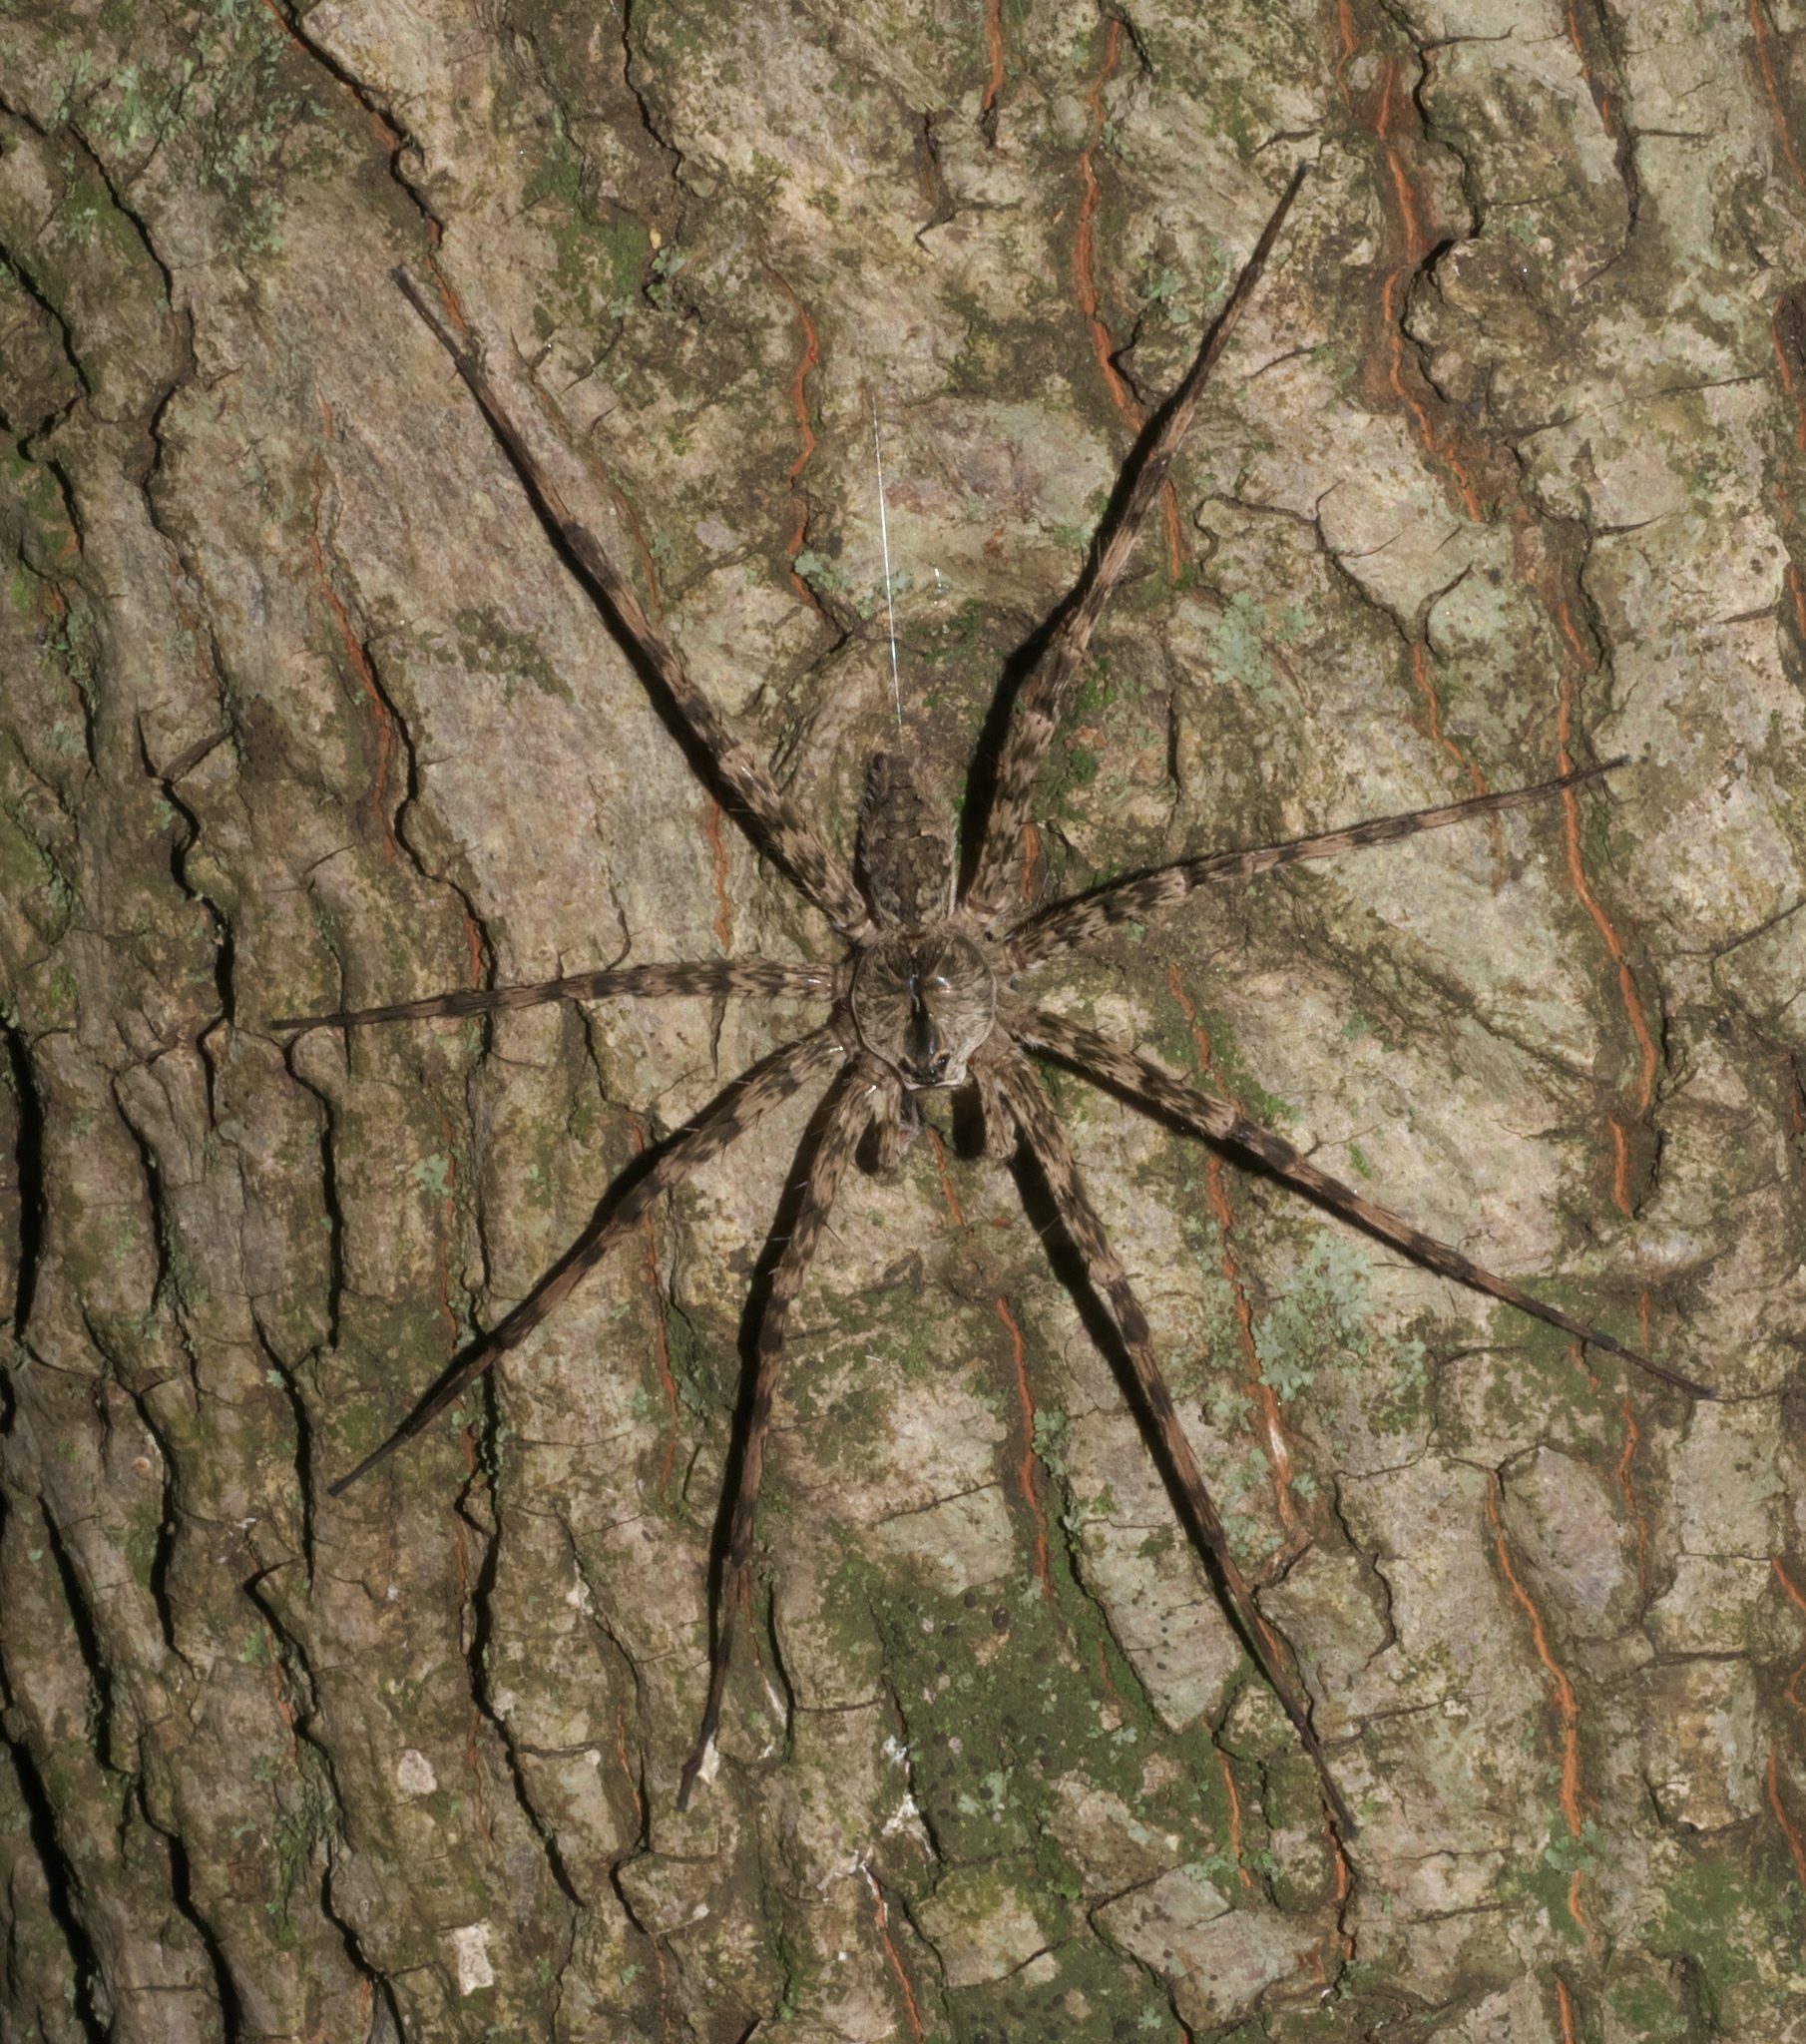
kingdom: Animalia
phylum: Arthropoda
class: Arachnida
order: Araneae
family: Pisauridae
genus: Dolomedes
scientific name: Dolomedes albineus
